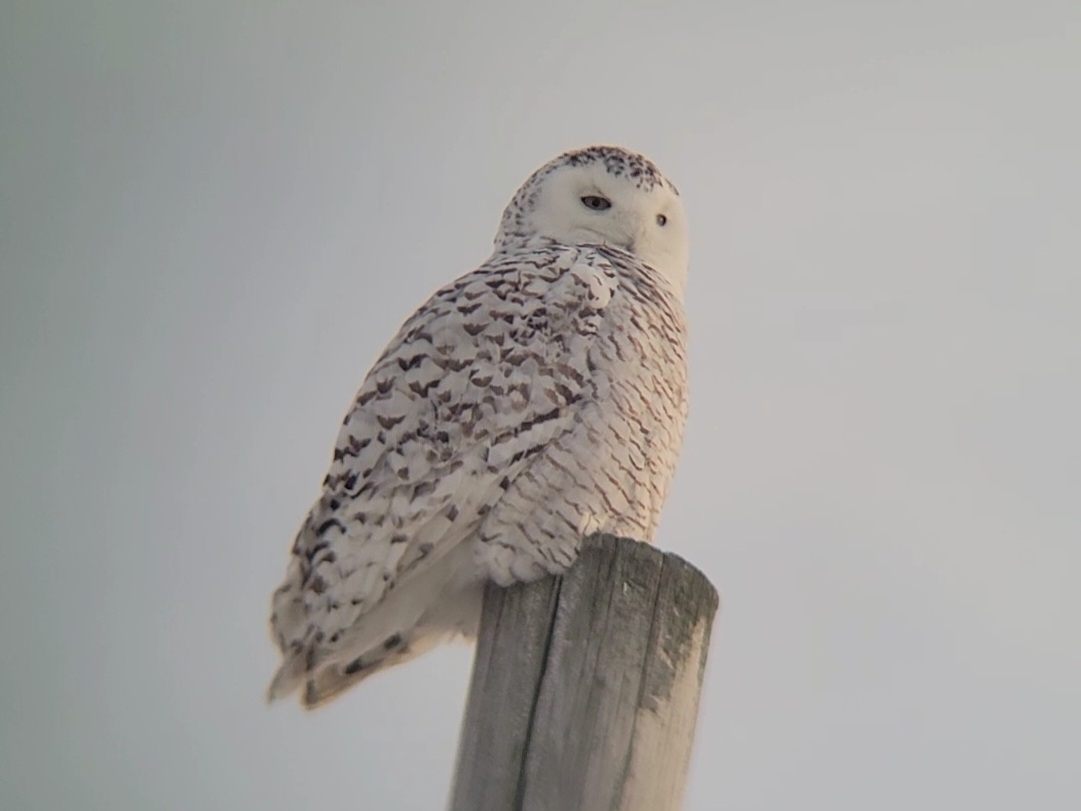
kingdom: Animalia
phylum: Chordata
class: Aves
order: Strigiformes
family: Strigidae
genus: Bubo
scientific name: Bubo scandiacus
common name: Snowy owl
